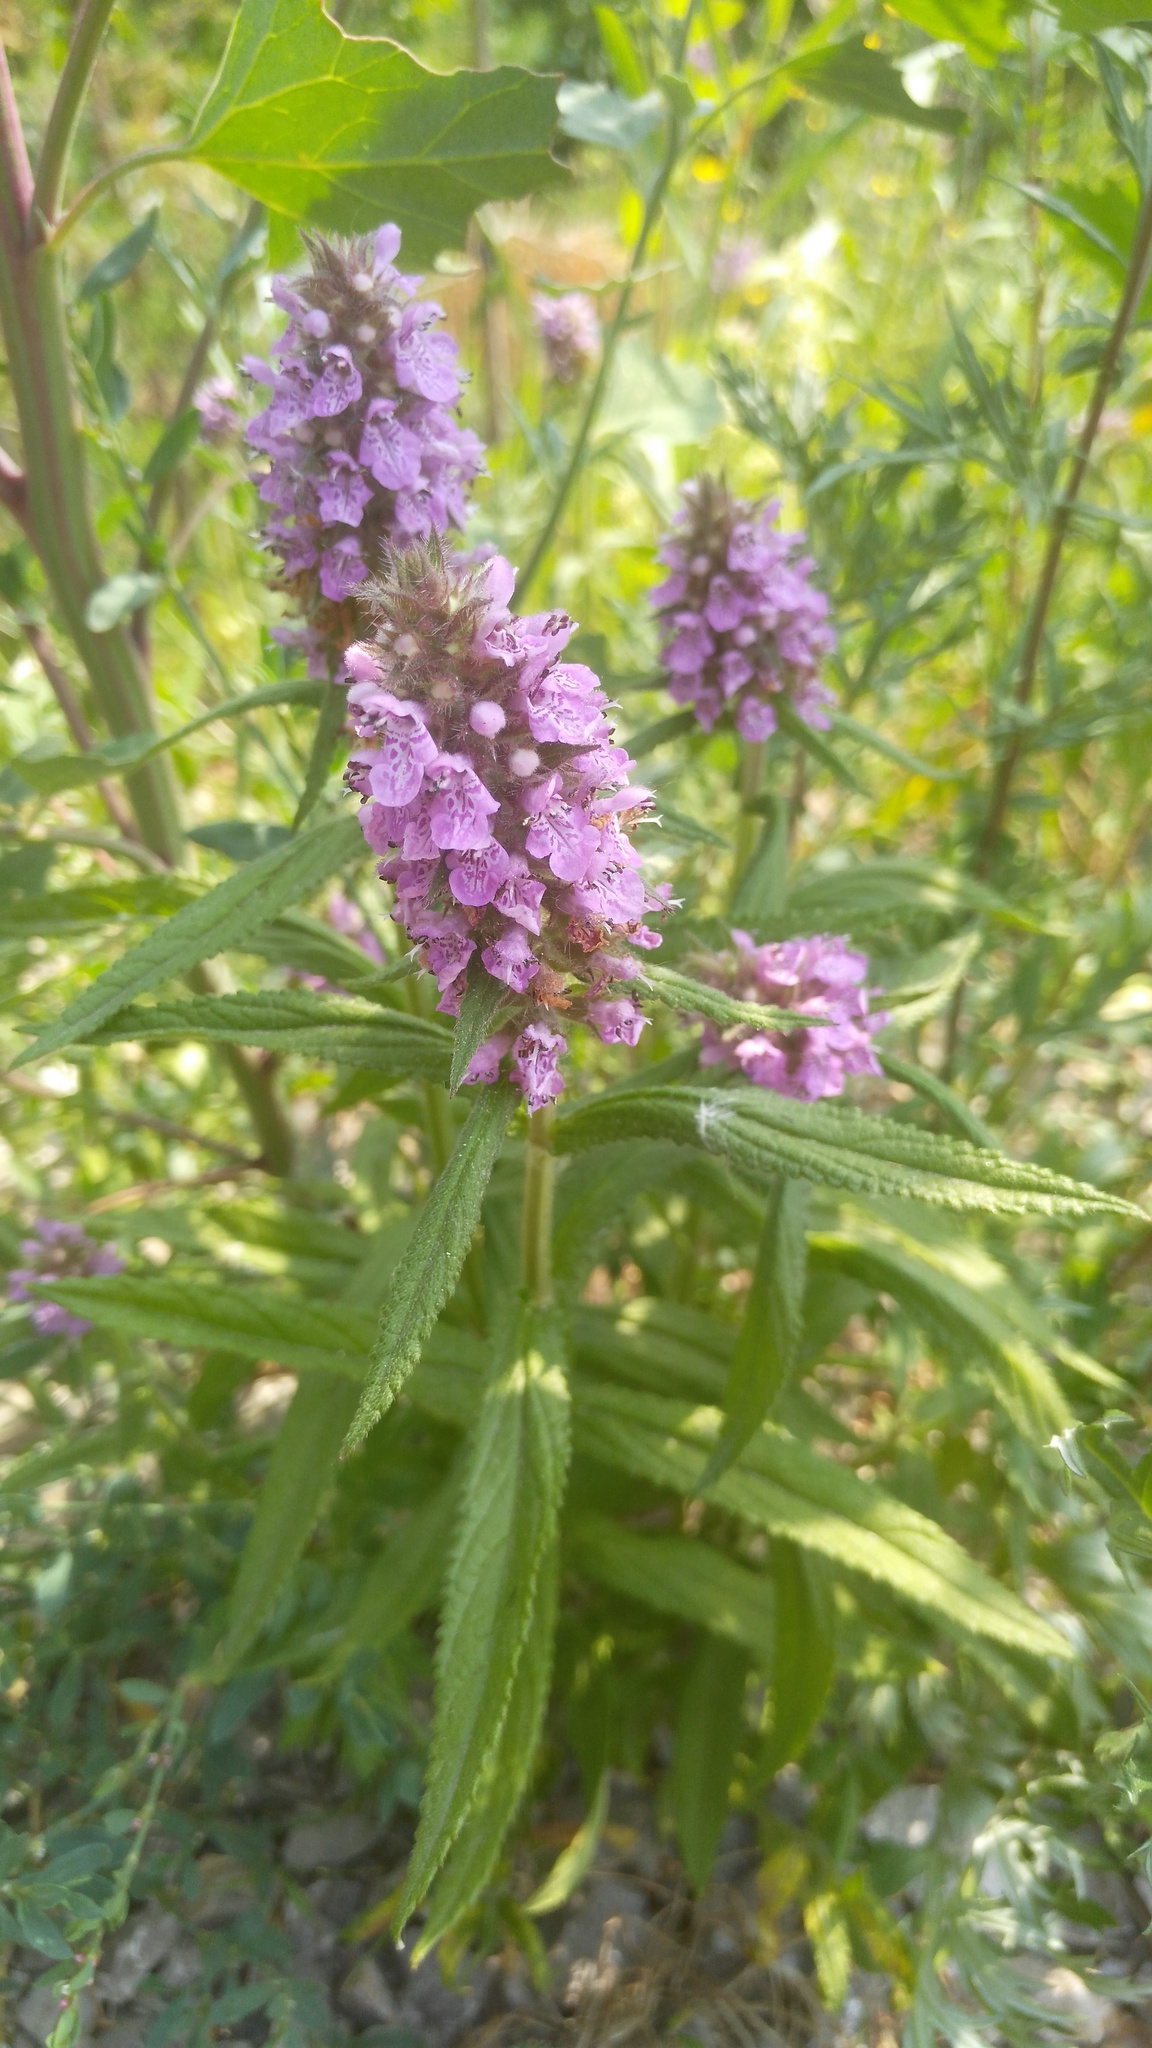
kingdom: Plantae
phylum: Tracheophyta
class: Magnoliopsida
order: Lamiales
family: Lamiaceae
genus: Stachys
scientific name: Stachys palustris
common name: Marsh woundwort
